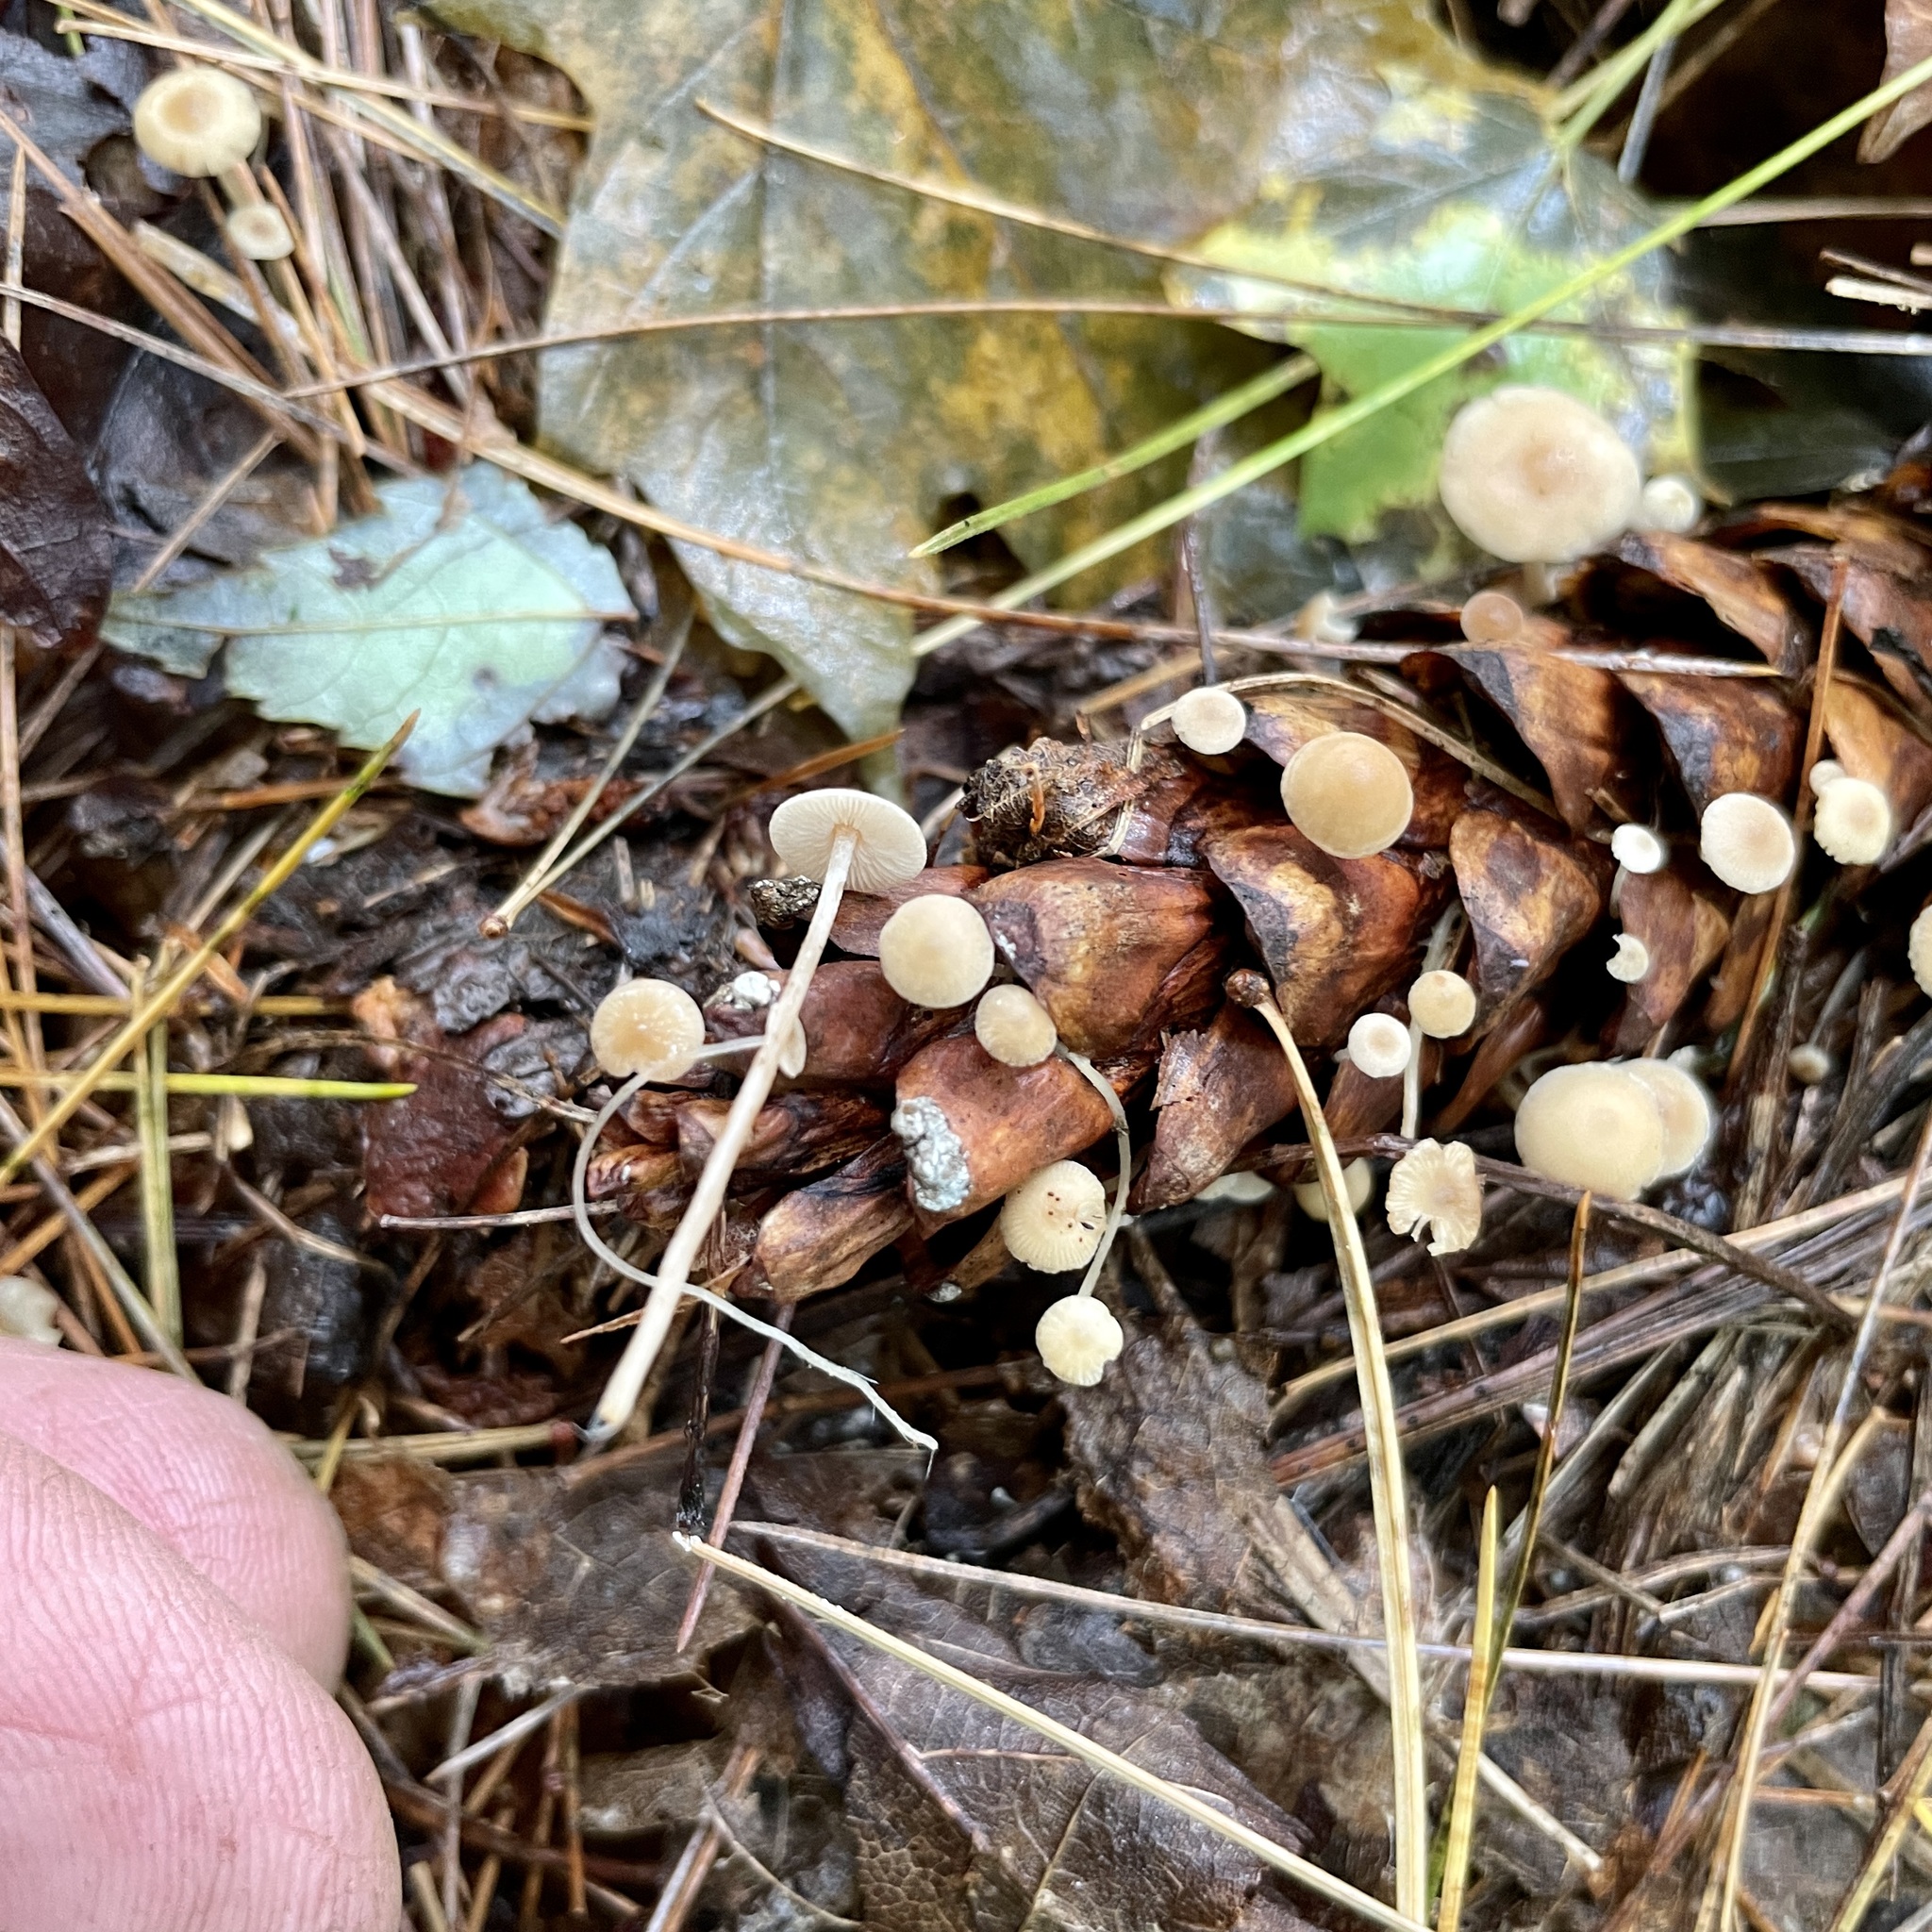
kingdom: Fungi
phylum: Basidiomycota
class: Agaricomycetes
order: Agaricales
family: Marasmiaceae
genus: Baeospora
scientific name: Baeospora myosura
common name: Conifercone cap
